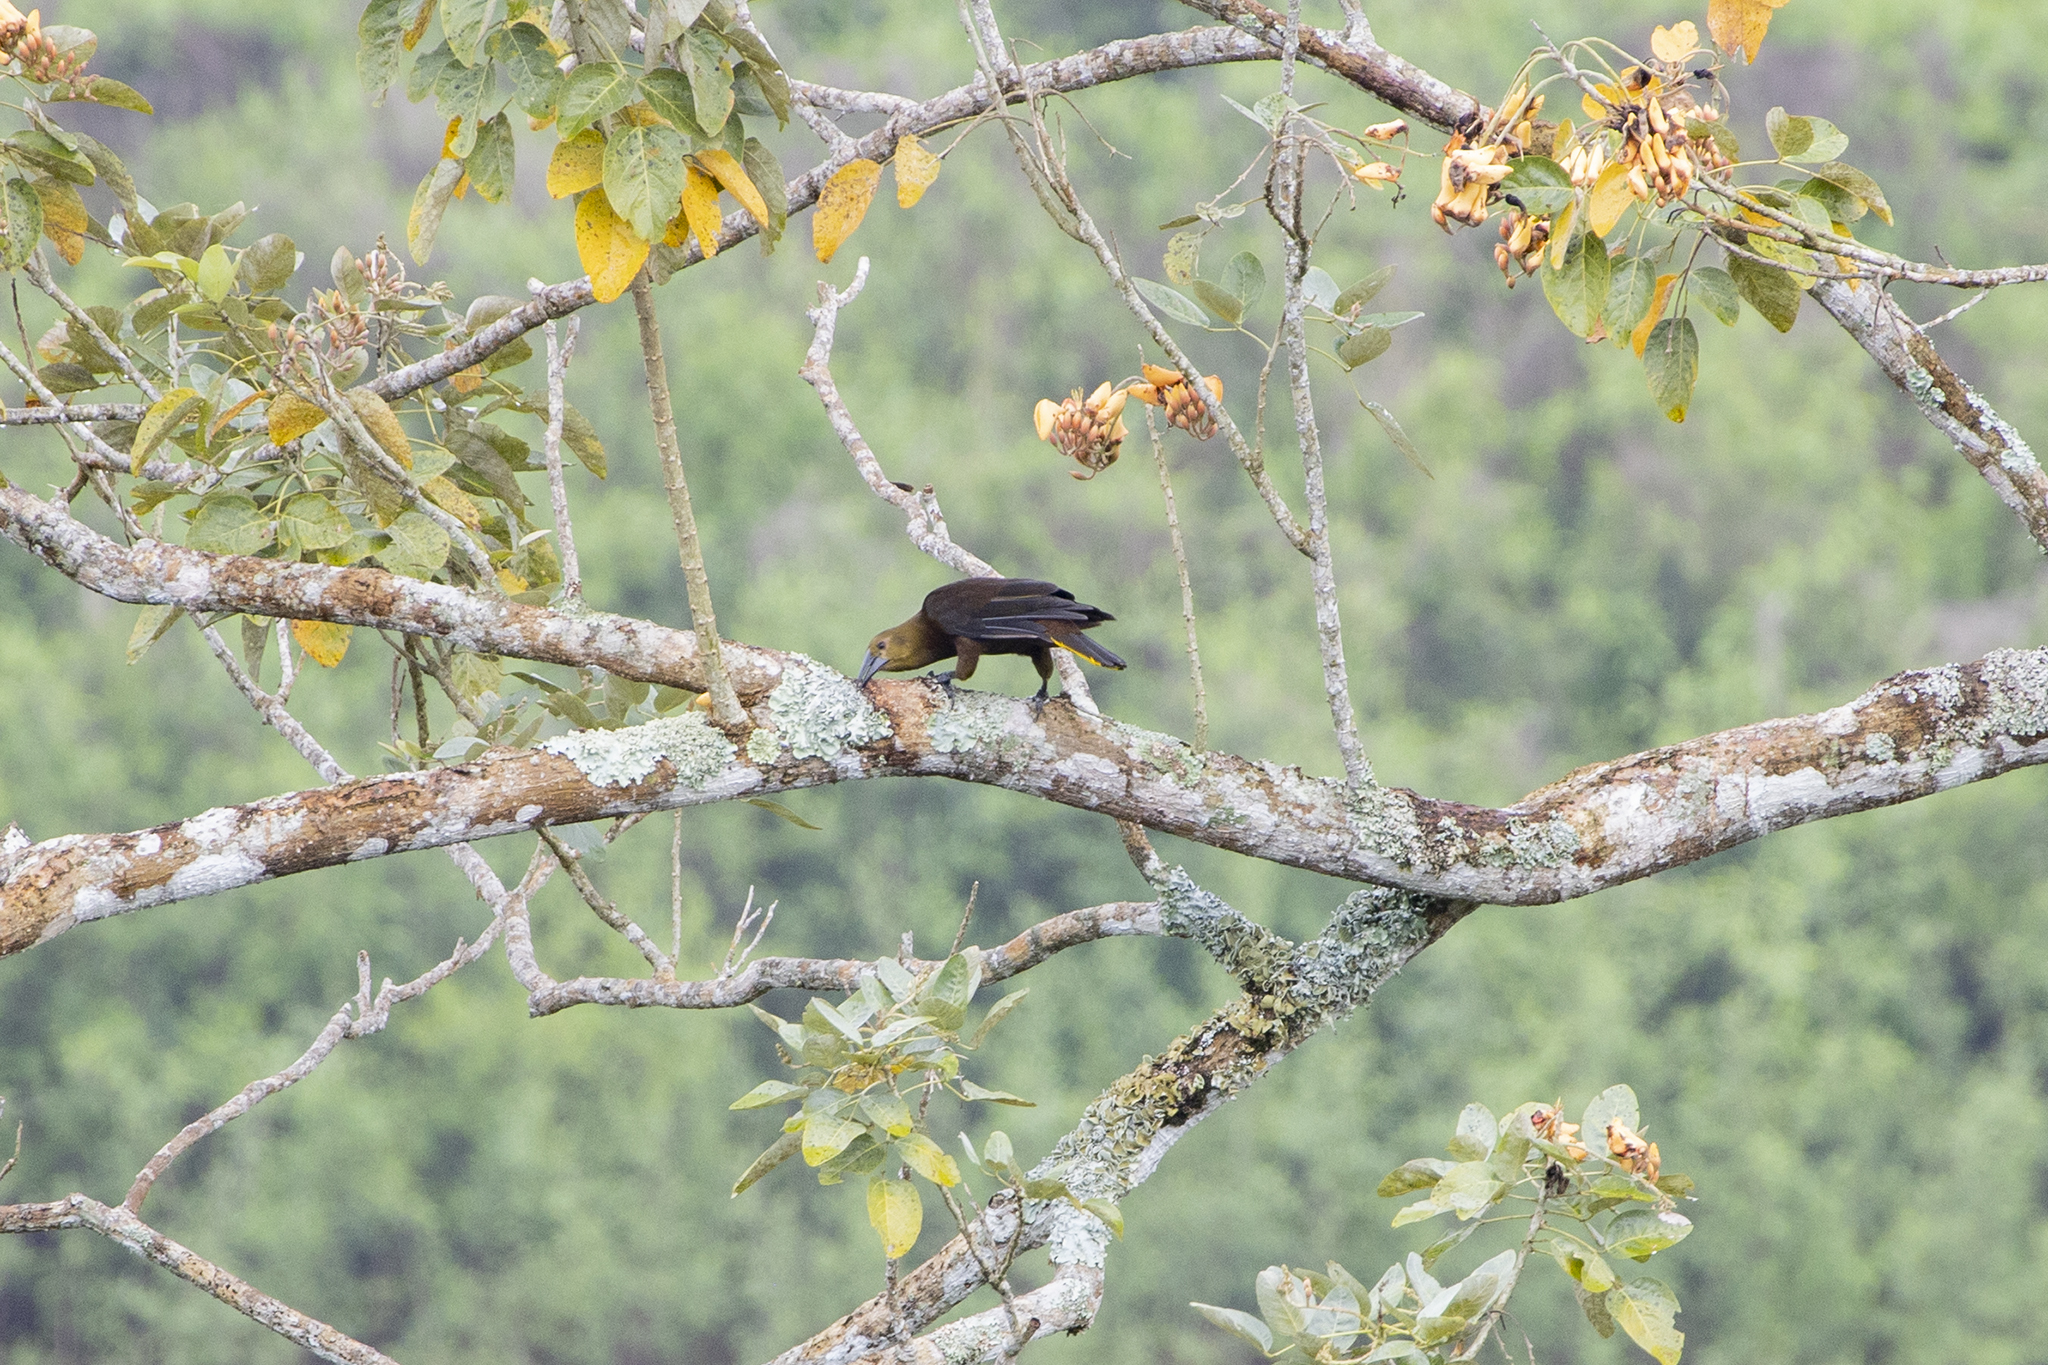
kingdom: Animalia
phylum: Chordata
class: Aves
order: Passeriformes
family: Icteridae
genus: Psarocolius
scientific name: Psarocolius angustifrons
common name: Russet-backed oropendola
